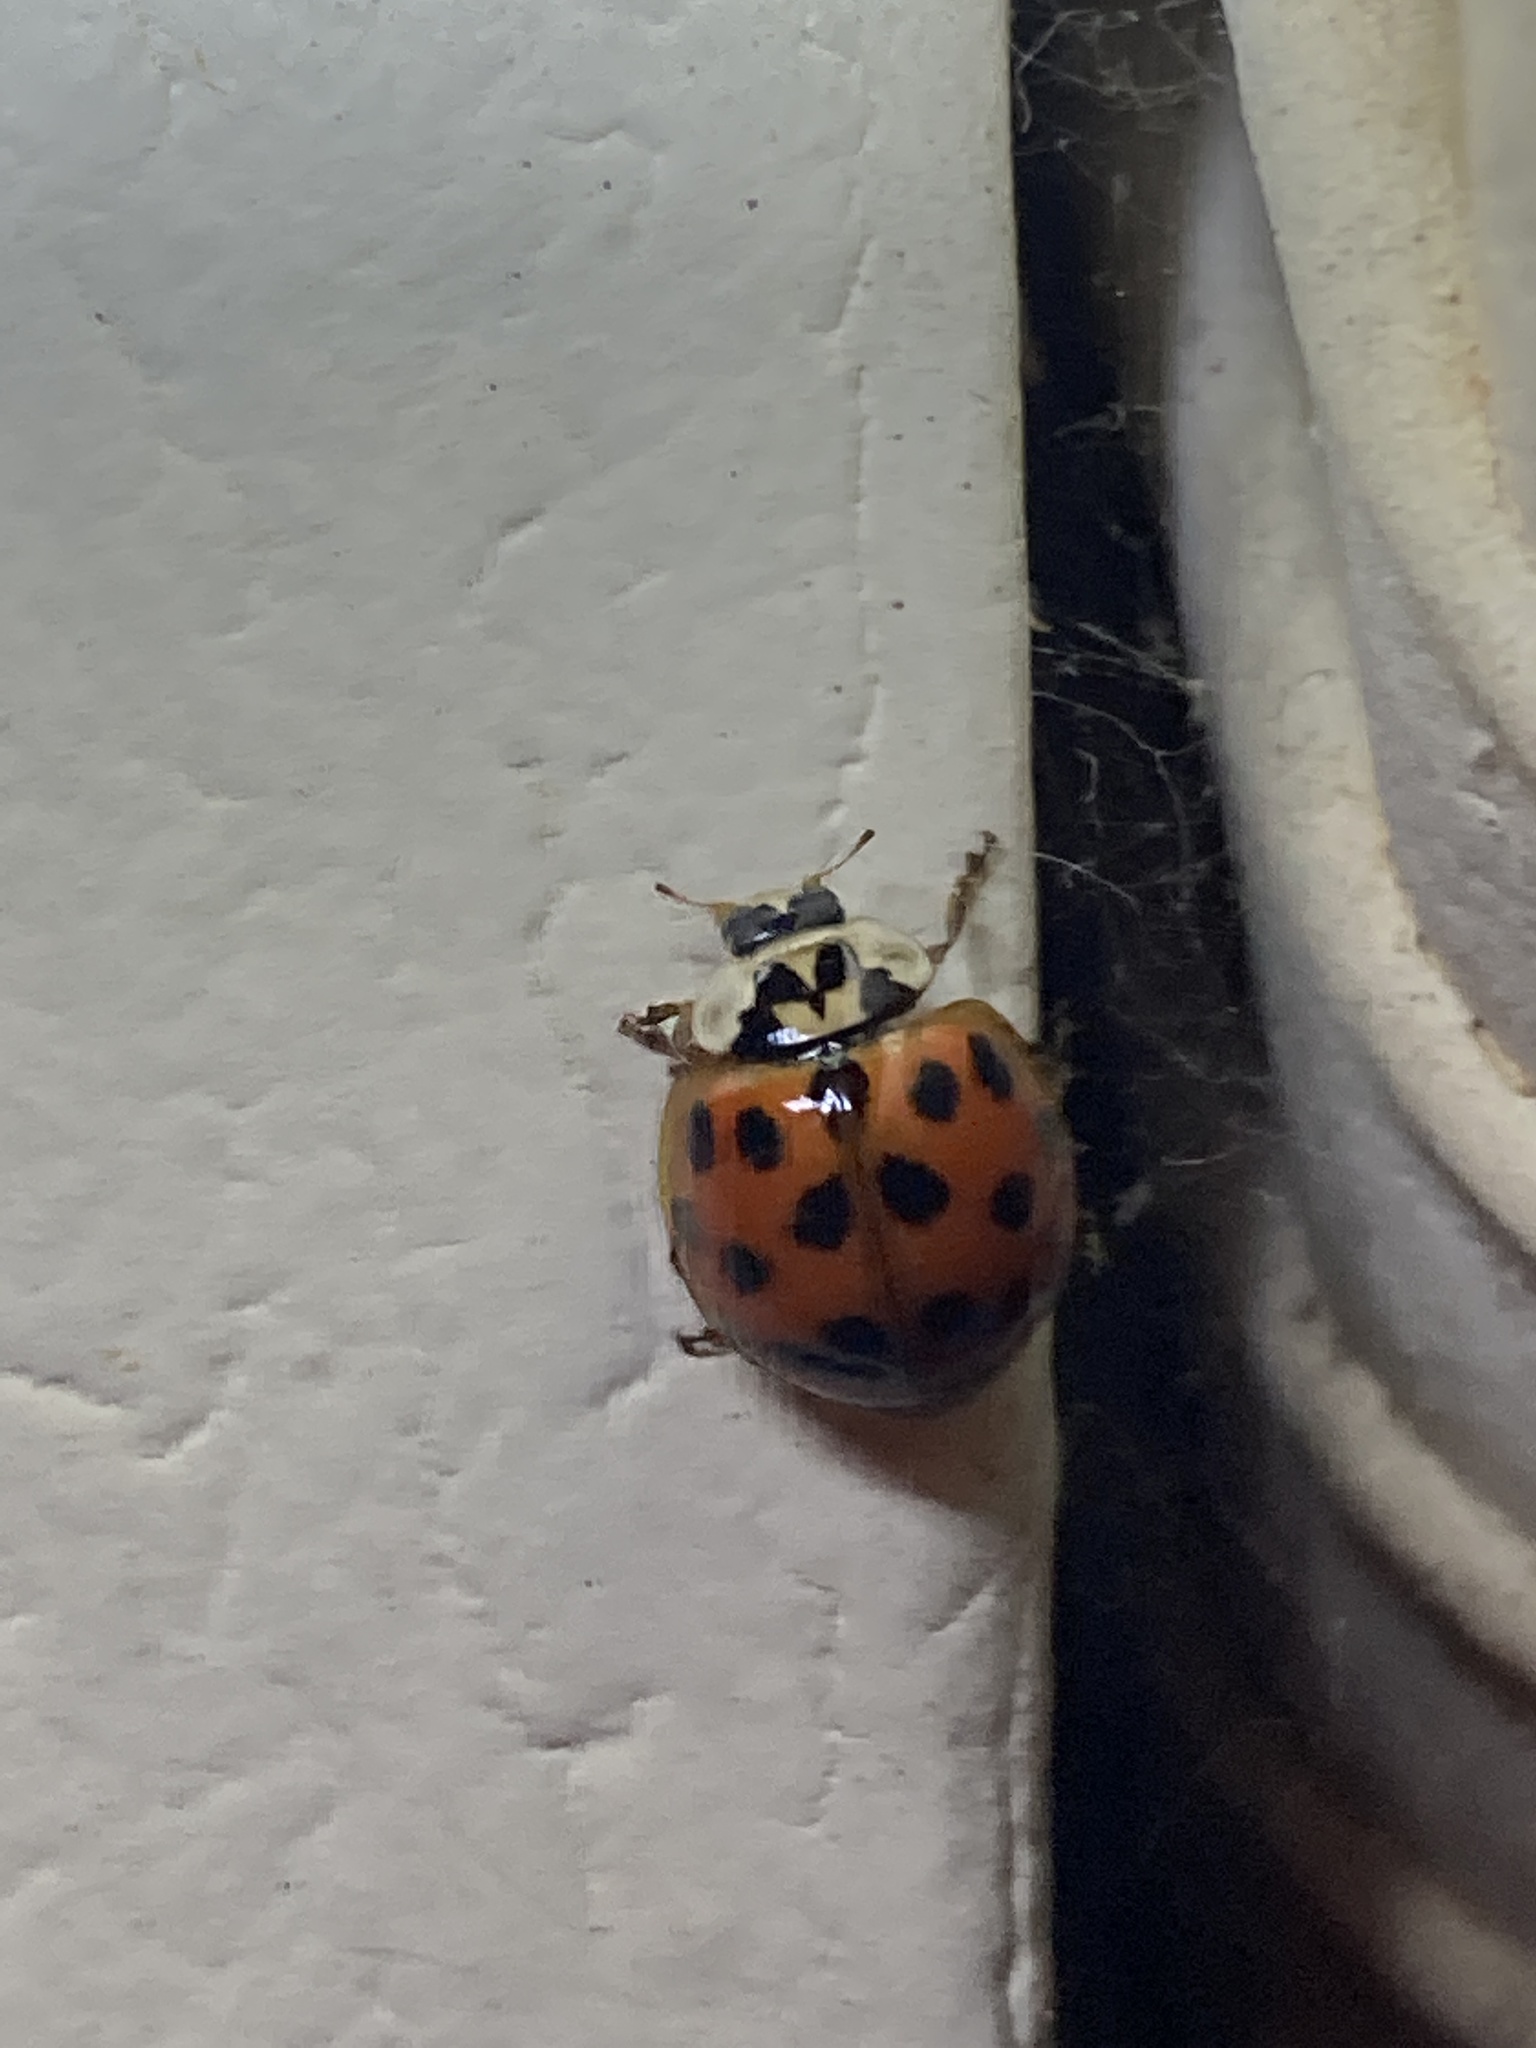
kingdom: Animalia
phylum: Arthropoda
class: Insecta
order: Coleoptera
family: Coccinellidae
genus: Harmonia
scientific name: Harmonia axyridis
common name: Harlequin ladybird
